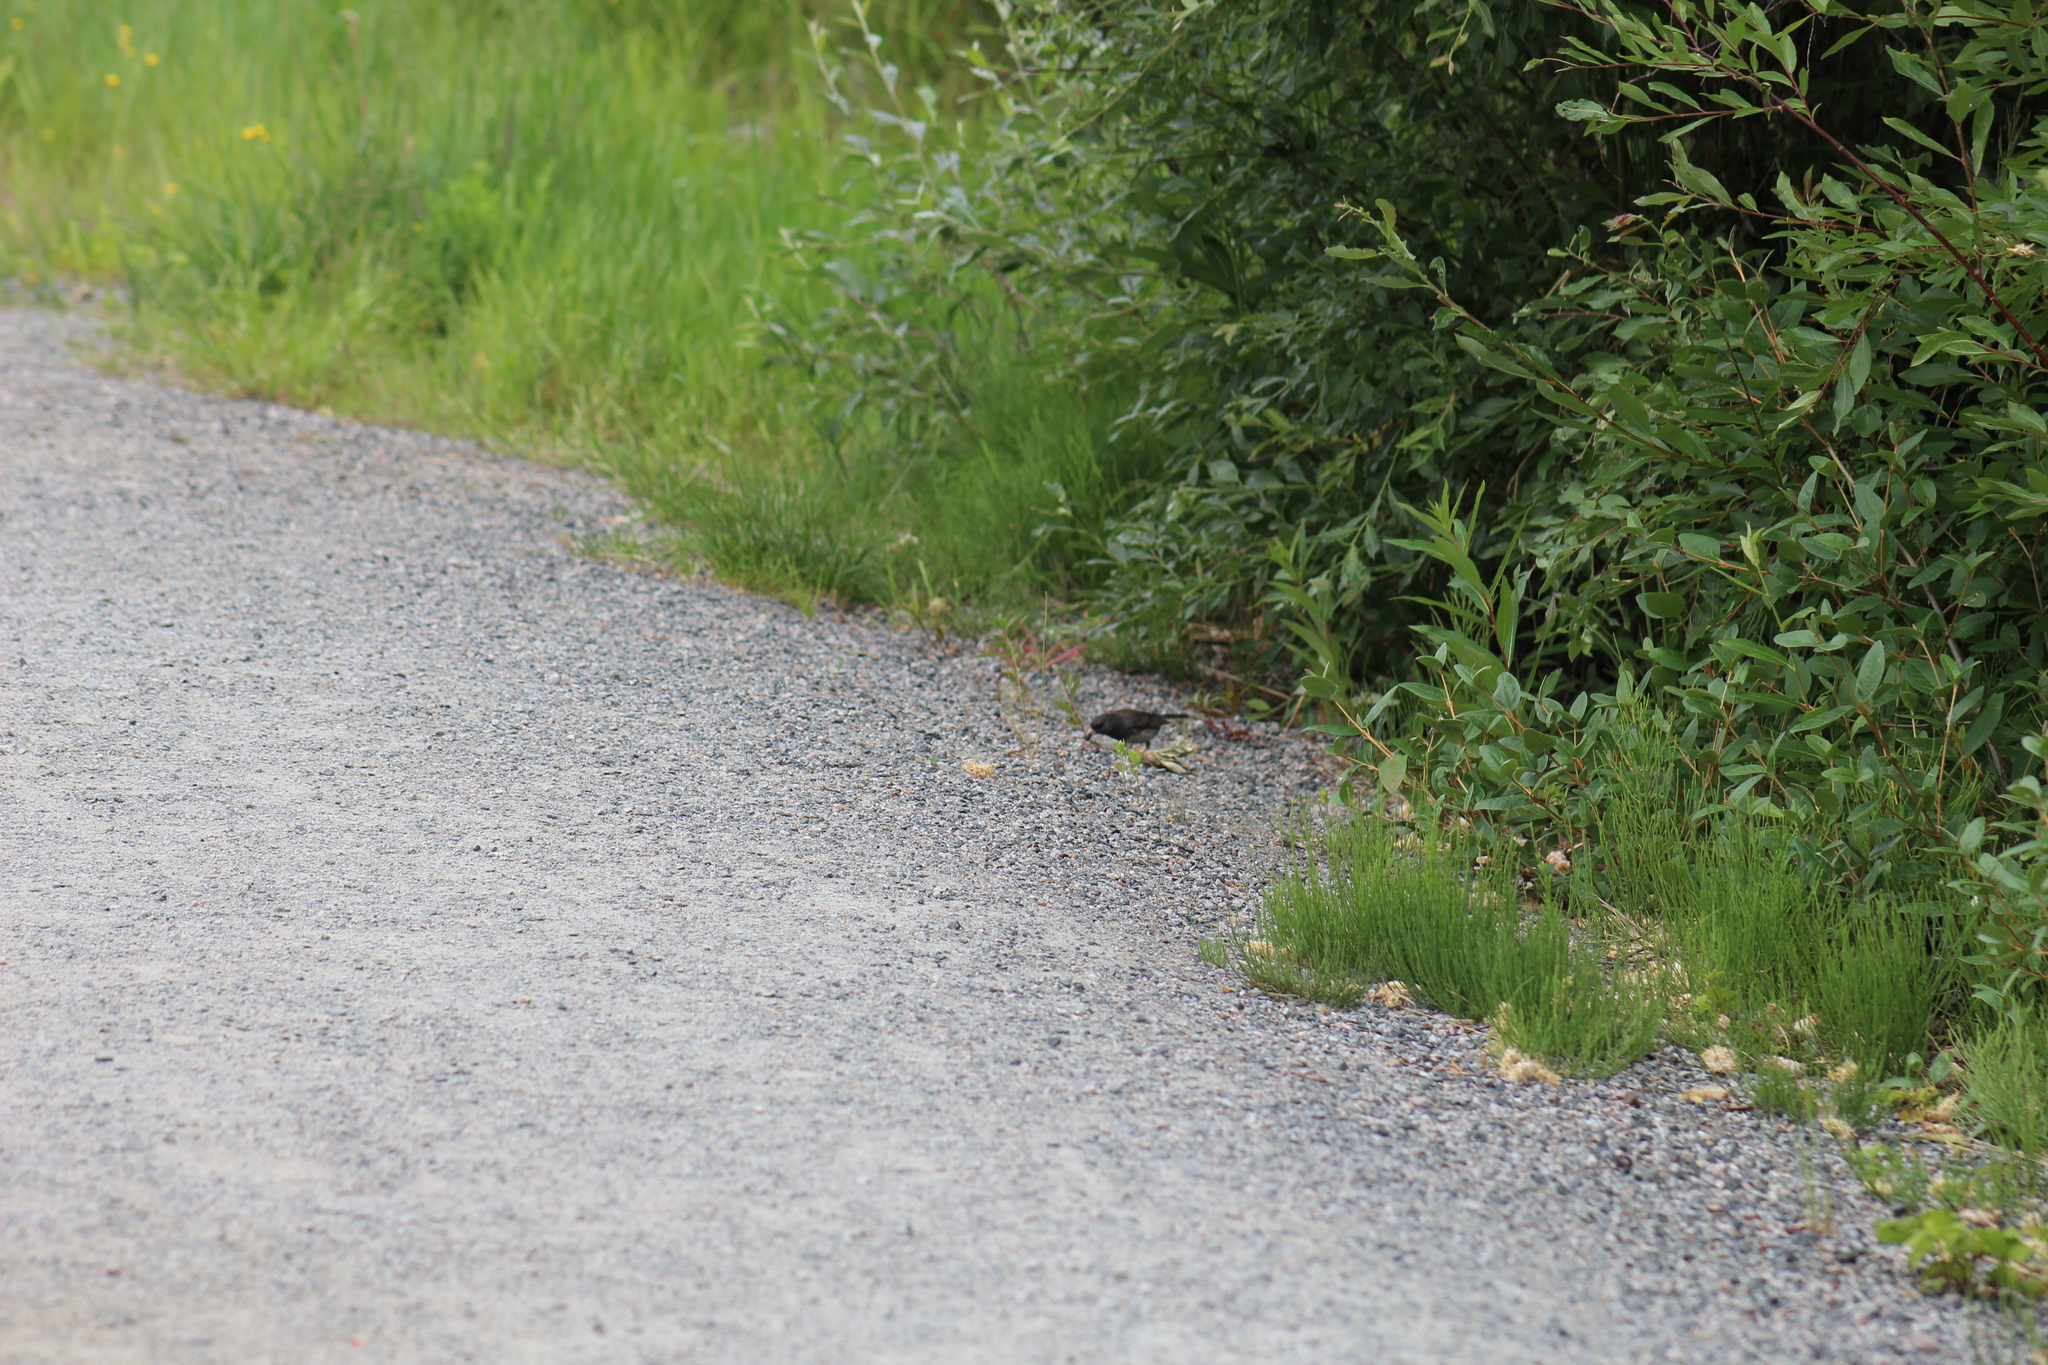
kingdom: Animalia
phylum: Chordata
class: Aves
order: Passeriformes
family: Passerellidae
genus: Junco
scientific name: Junco hyemalis
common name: Dark-eyed junco
